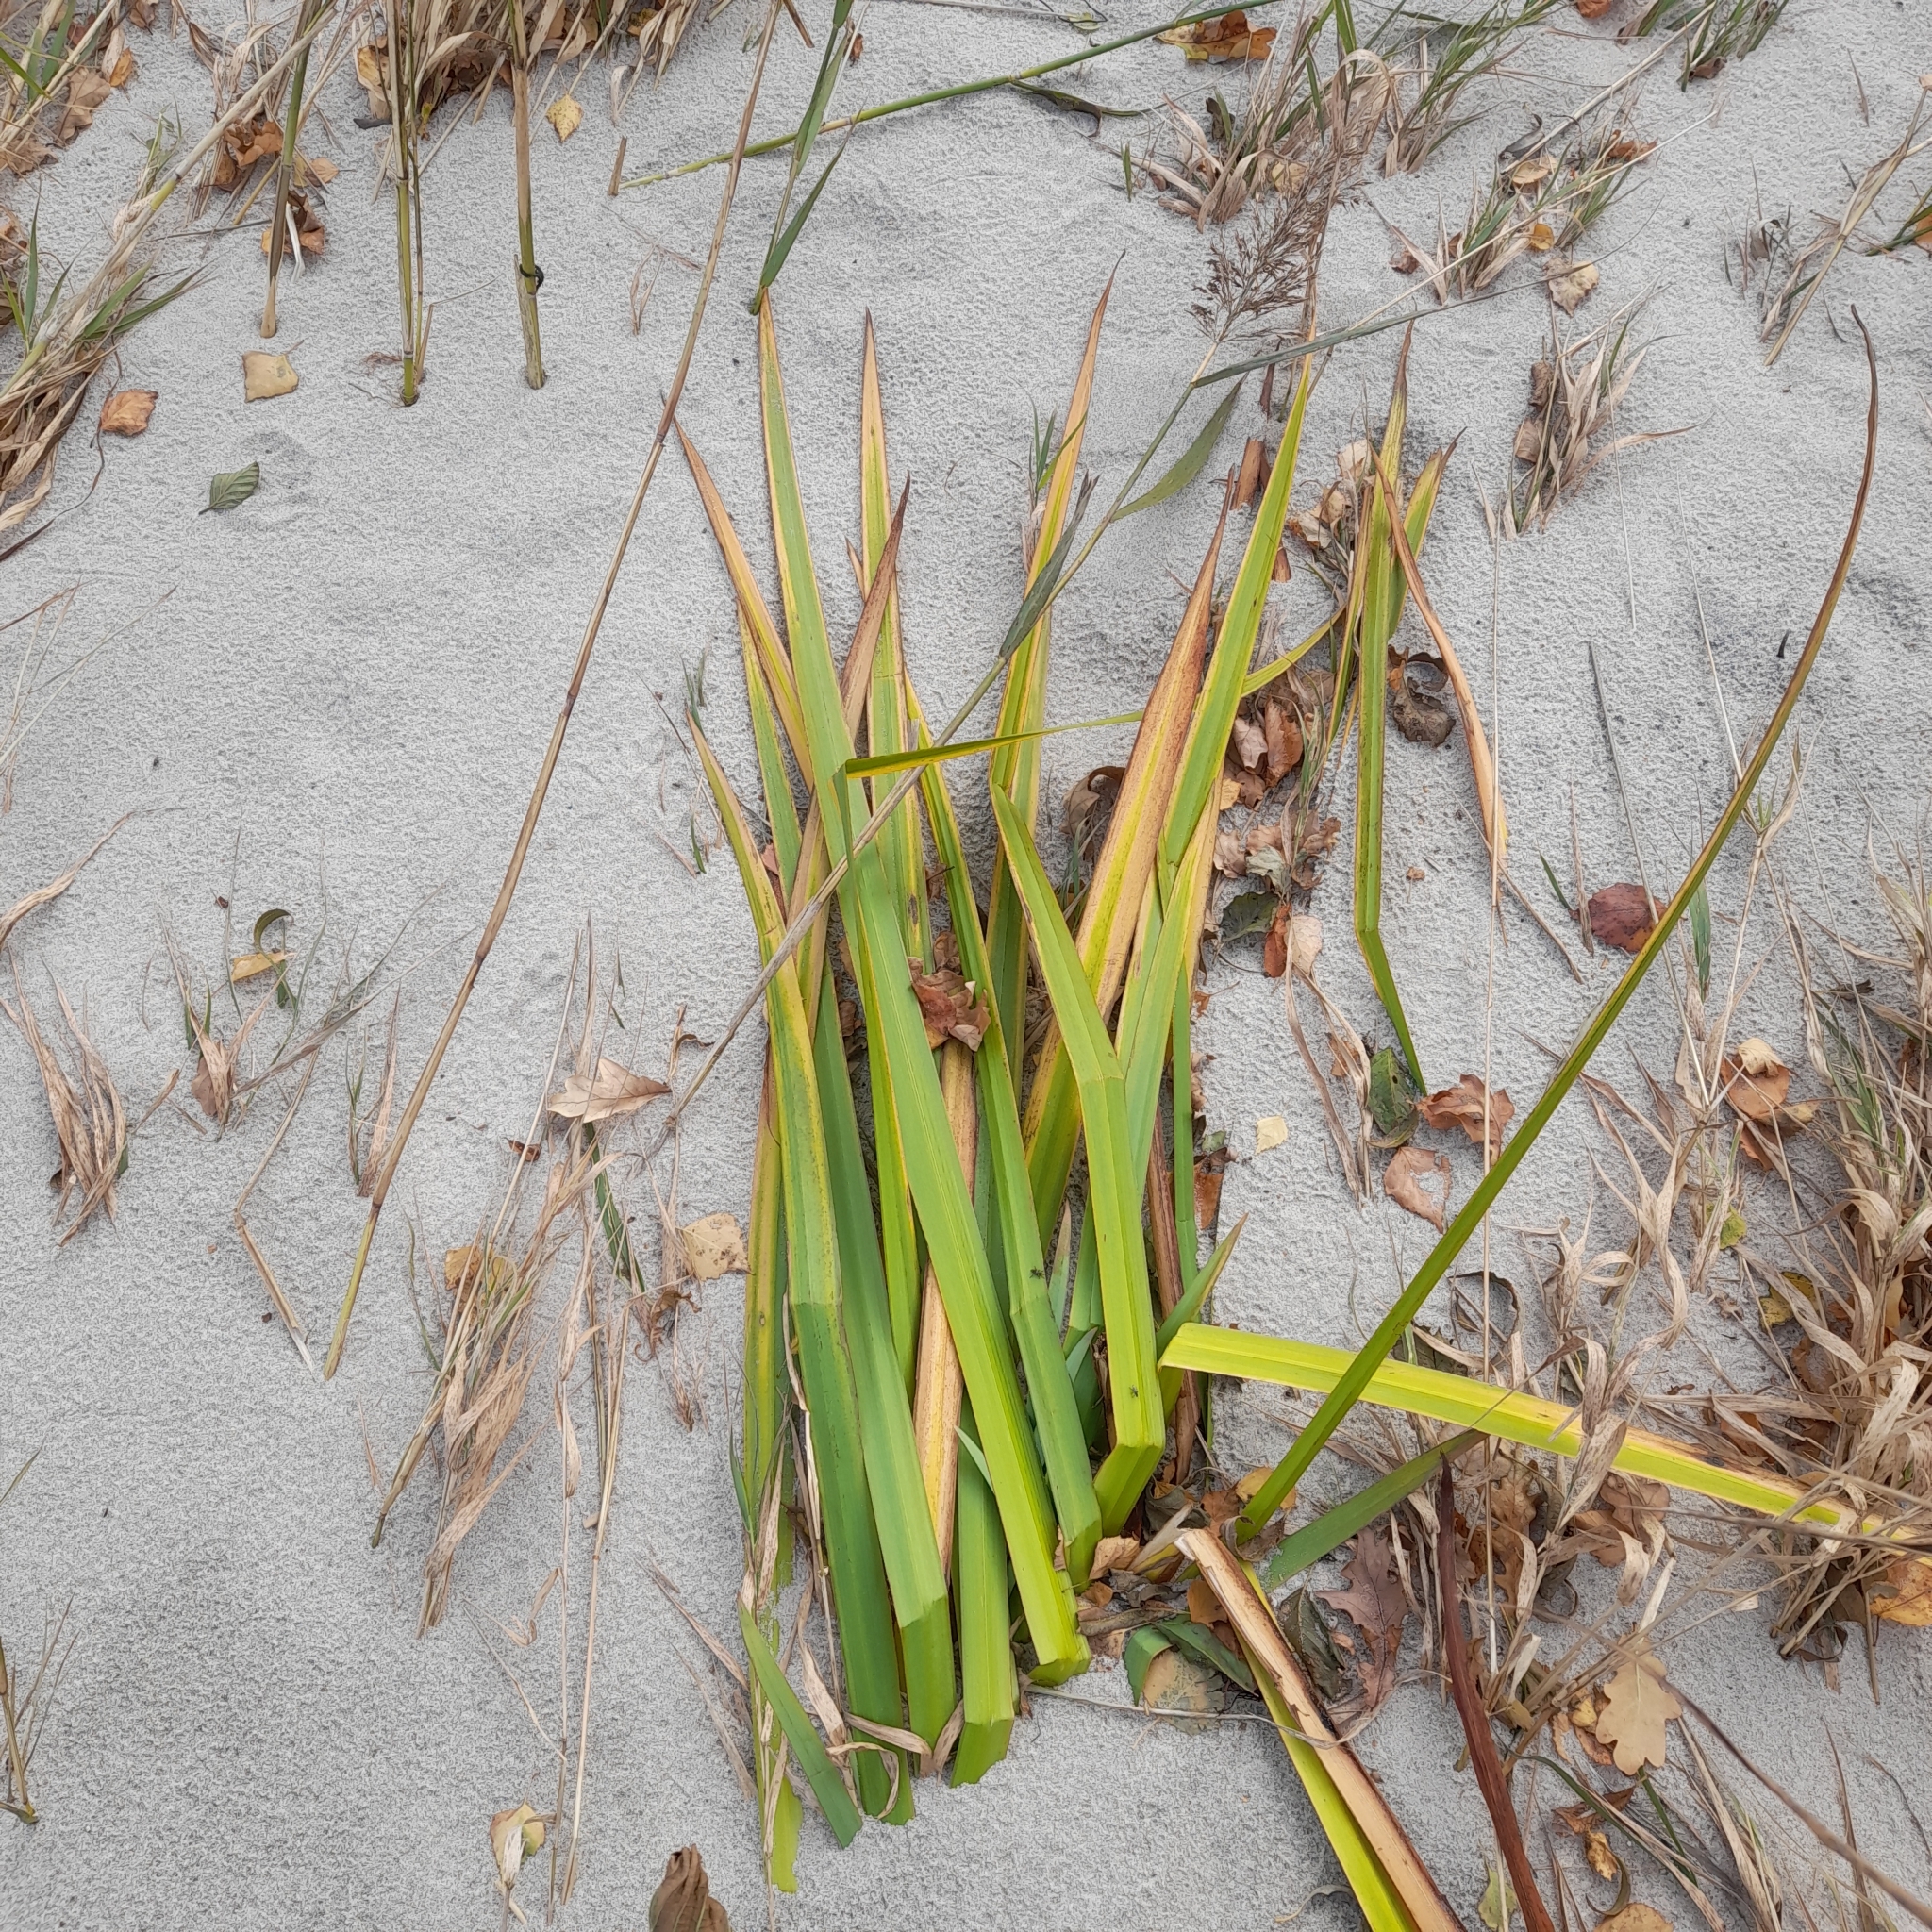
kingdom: Plantae
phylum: Tracheophyta
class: Liliopsida
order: Asparagales
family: Iridaceae
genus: Iris
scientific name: Iris pseudacorus
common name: Yellow flag
